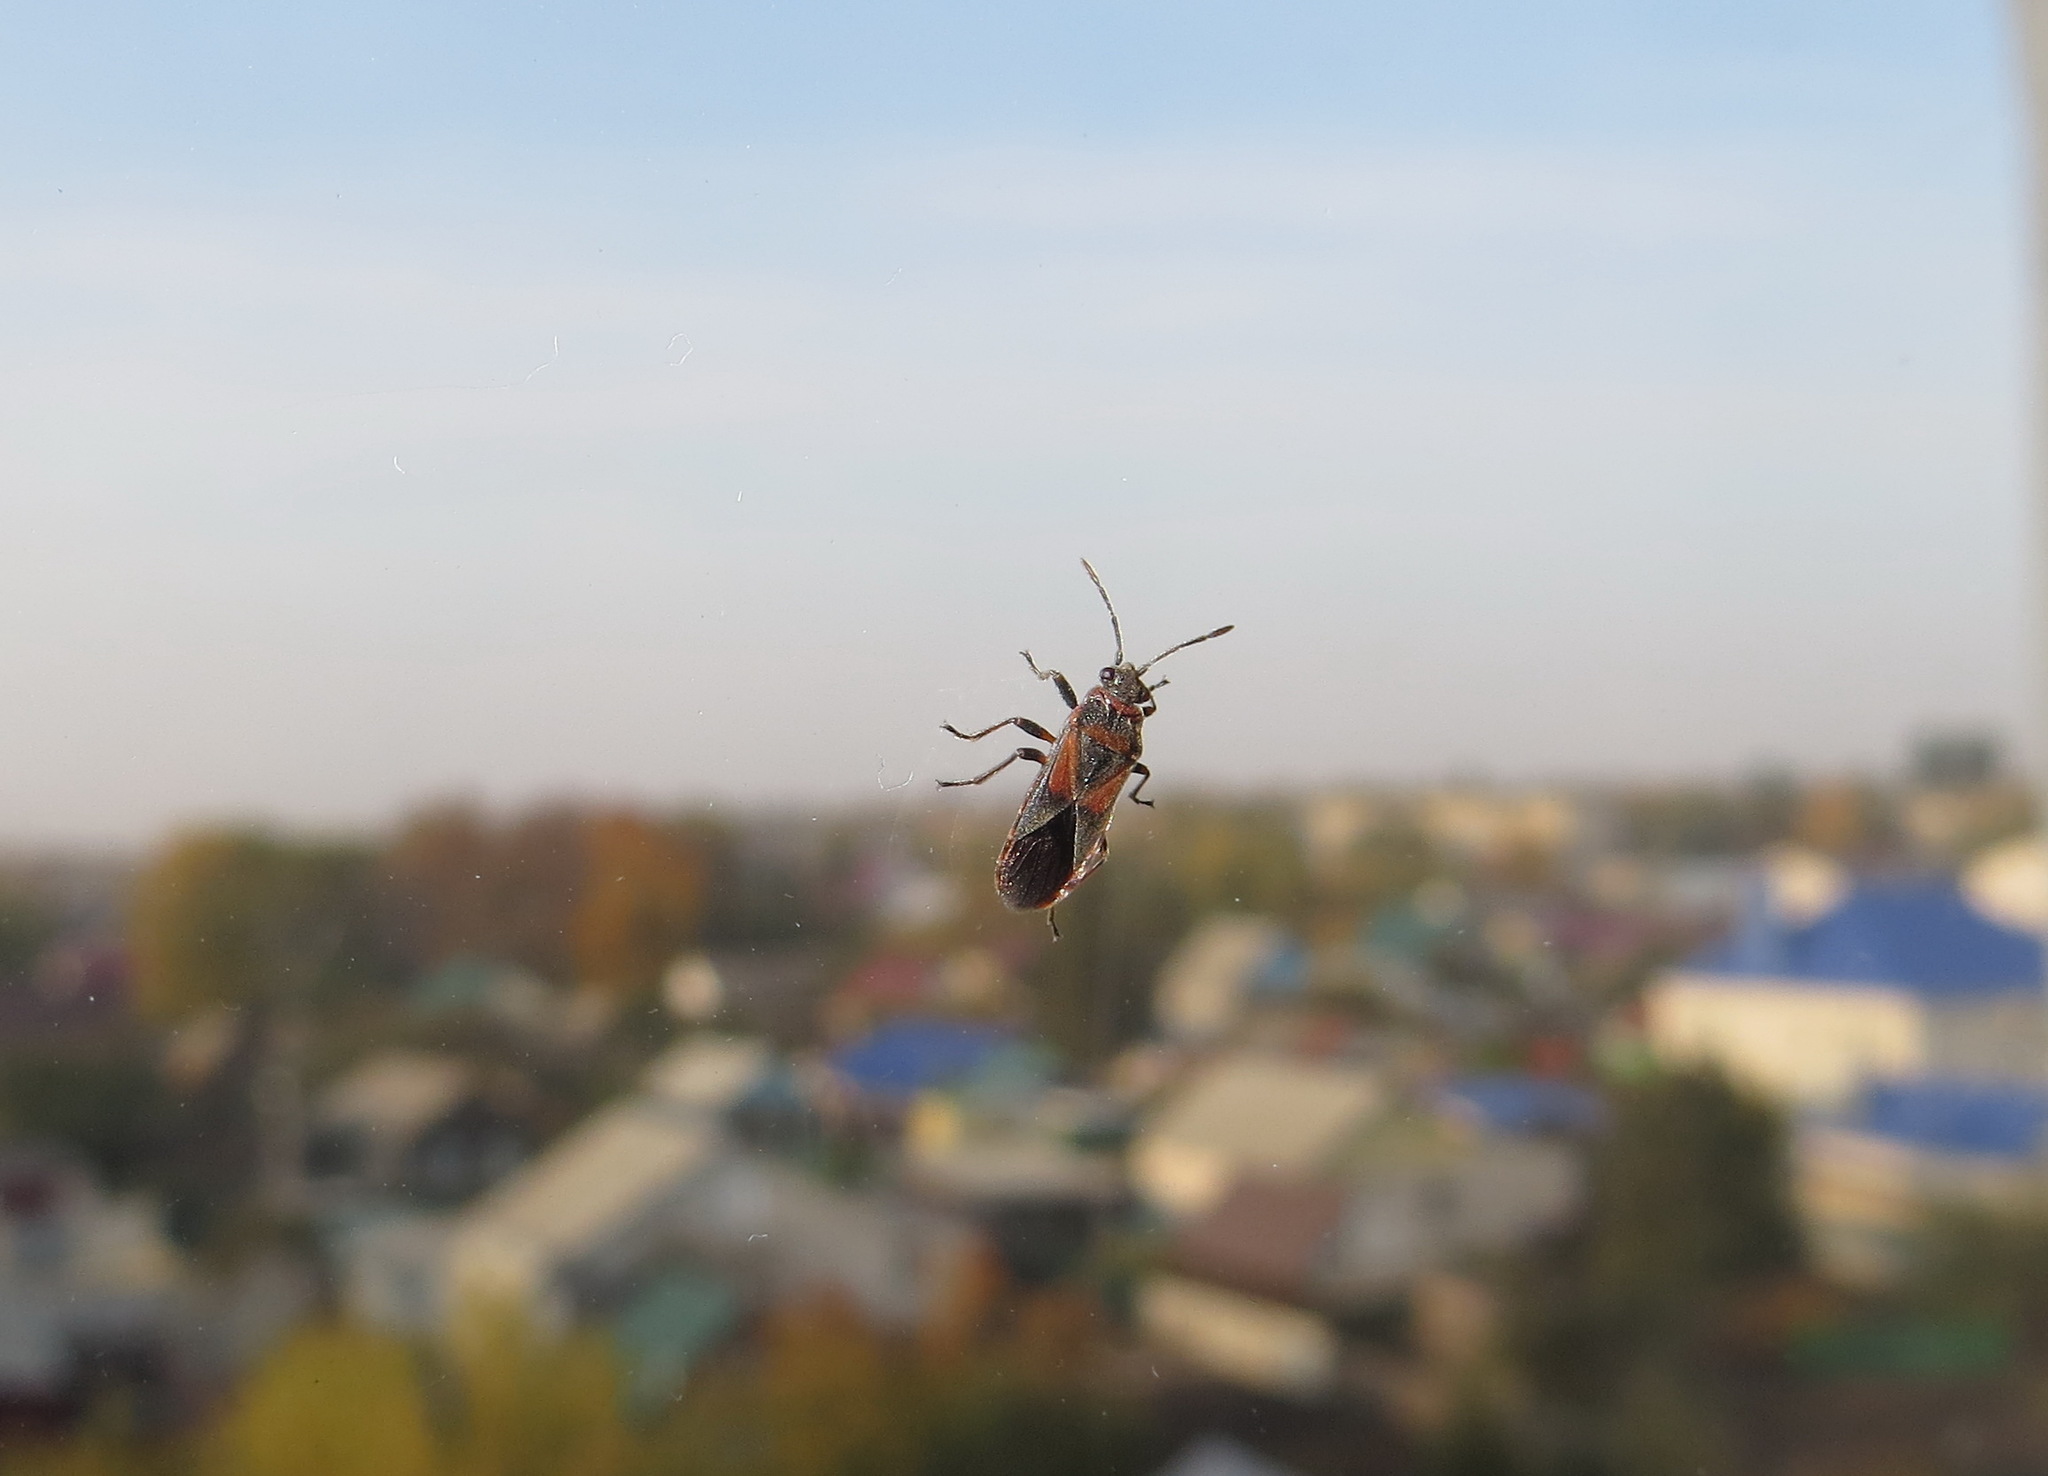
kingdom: Animalia
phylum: Arthropoda
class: Insecta
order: Hemiptera
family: Lygaeidae
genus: Arocatus
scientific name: Arocatus melanocephalus
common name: Lygaeid bug
